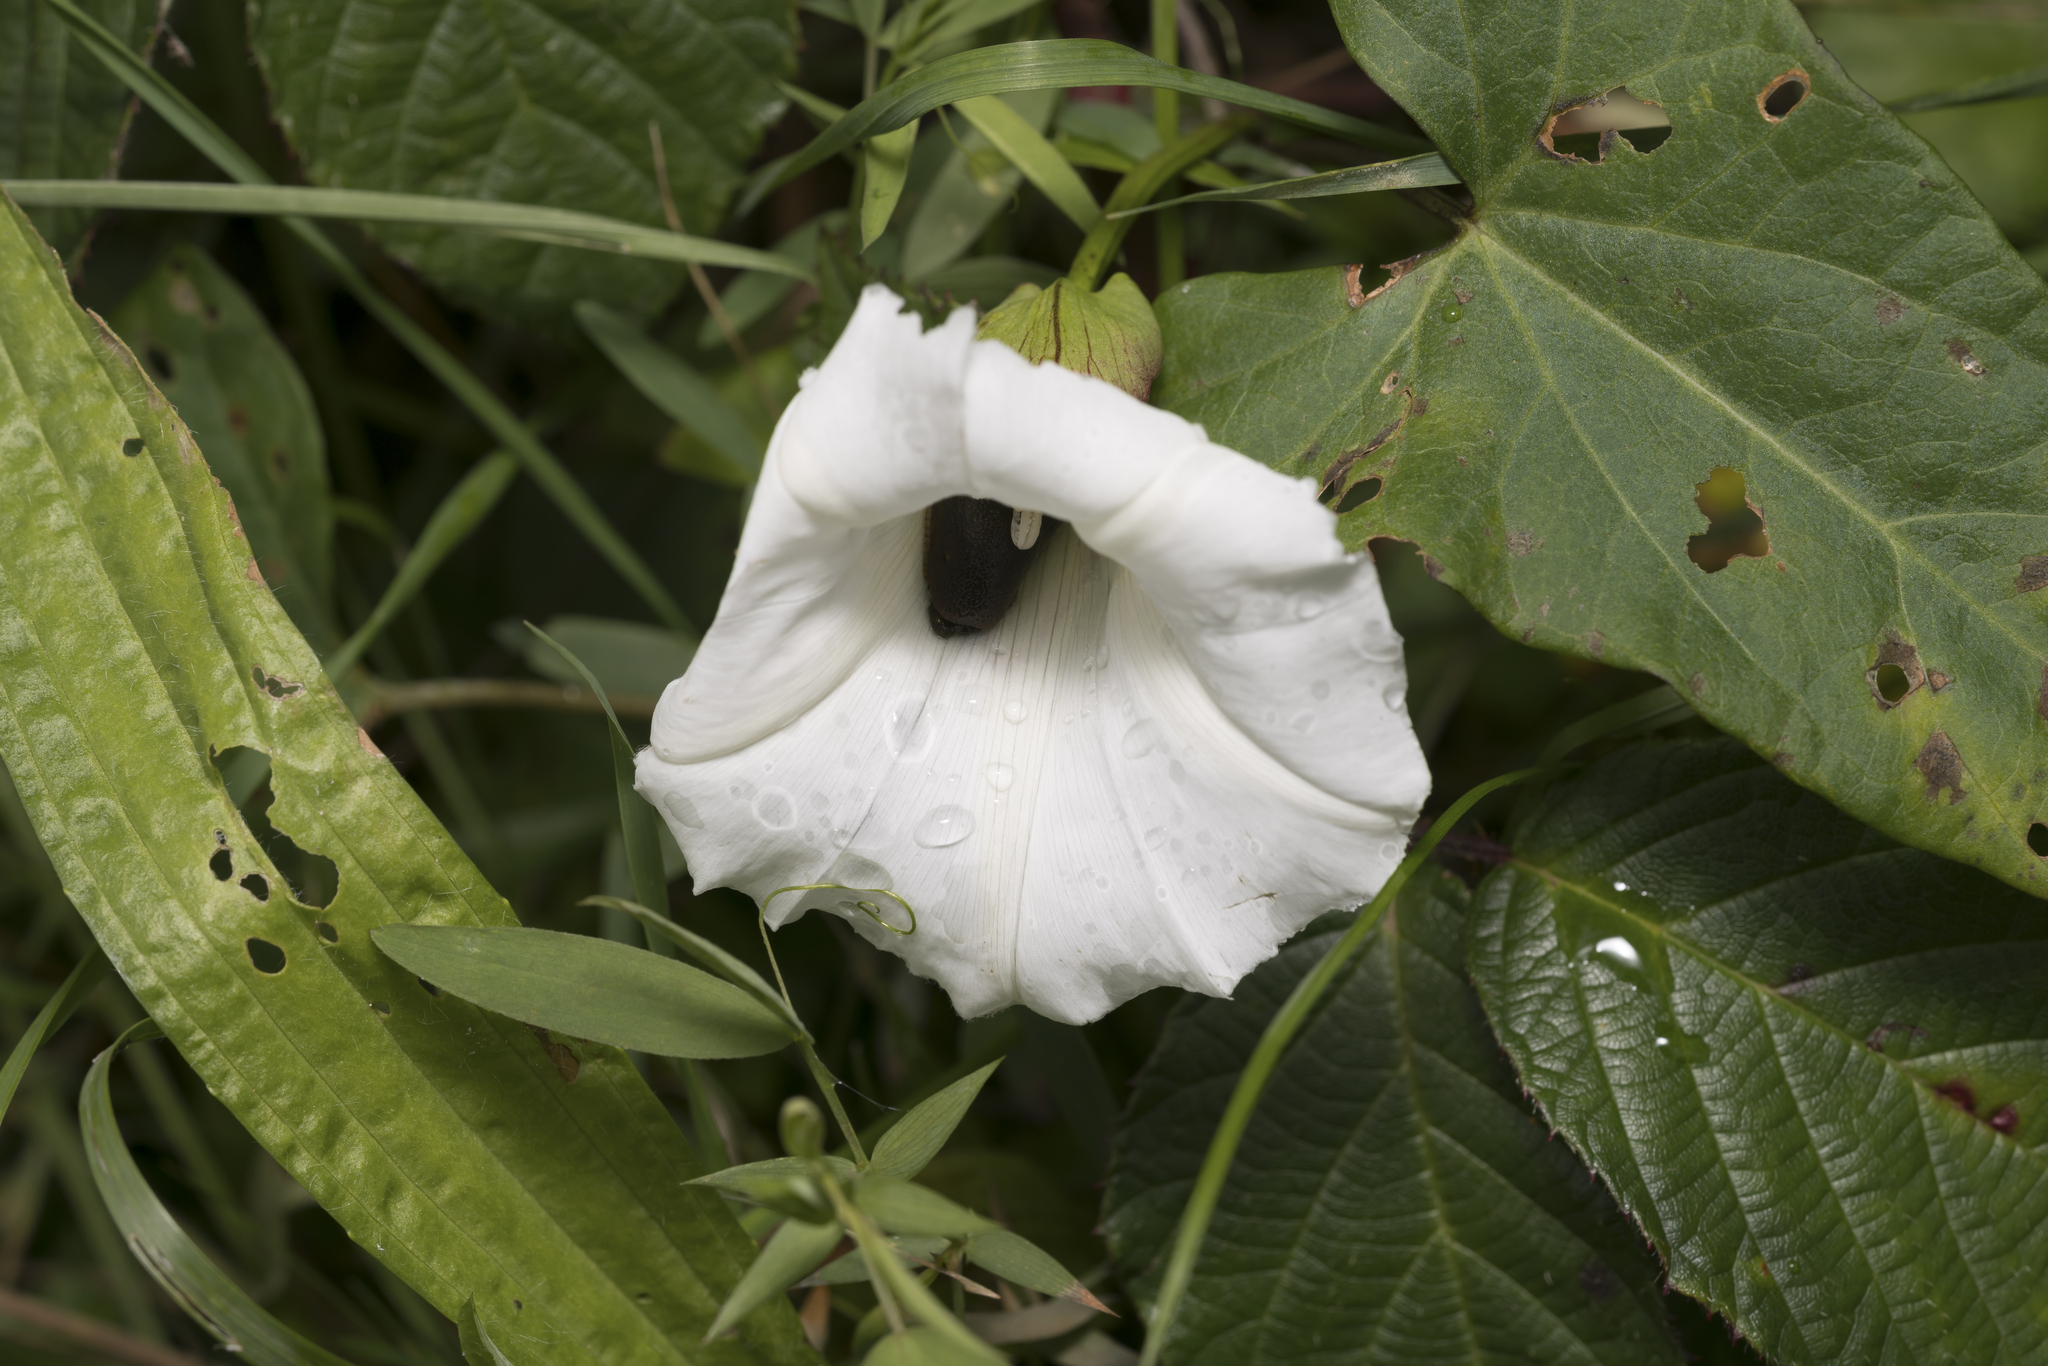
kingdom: Plantae
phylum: Tracheophyta
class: Magnoliopsida
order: Solanales
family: Convolvulaceae
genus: Calystegia
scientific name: Calystegia sepium
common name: Hedge bindweed
